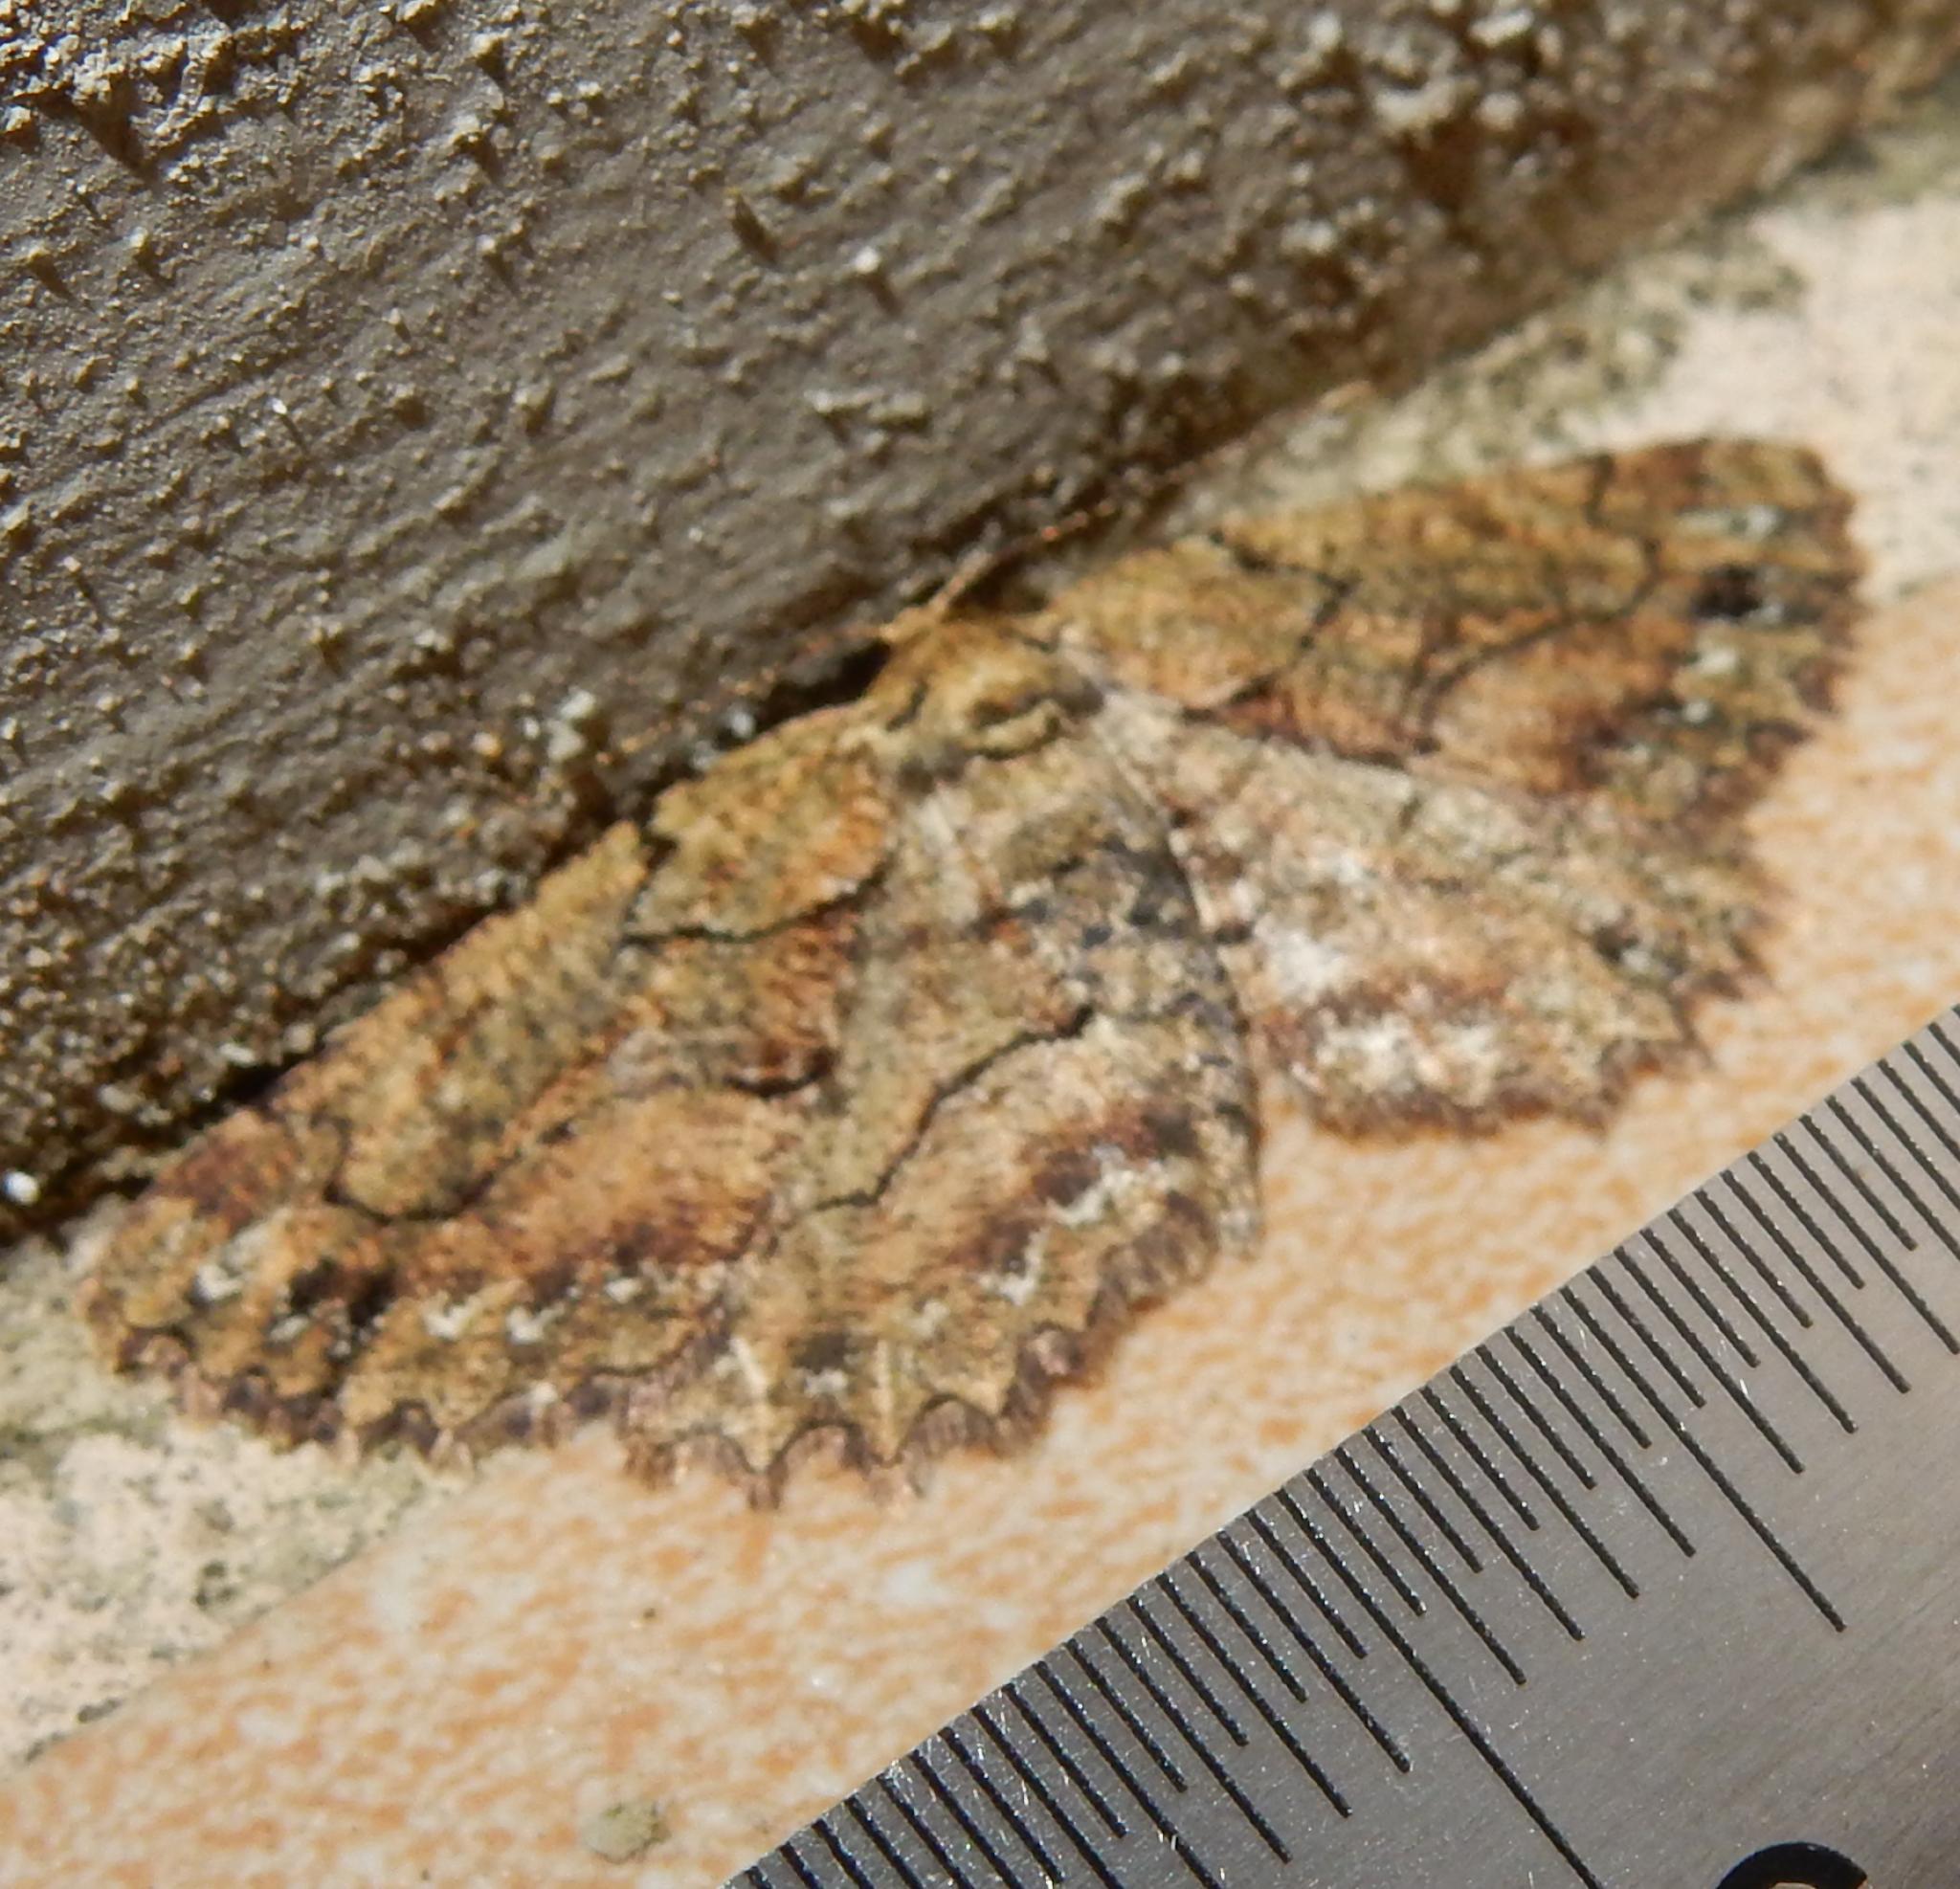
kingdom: Animalia
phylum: Arthropoda
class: Insecta
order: Lepidoptera
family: Geometridae
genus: Menophra
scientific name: Menophra serrataria
